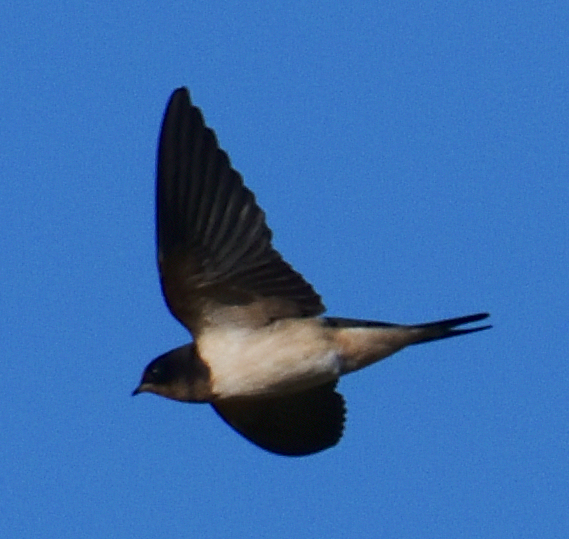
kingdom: Animalia
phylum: Chordata
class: Aves
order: Passeriformes
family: Hirundinidae
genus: Hirundo
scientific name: Hirundo rustica
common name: Barn swallow
